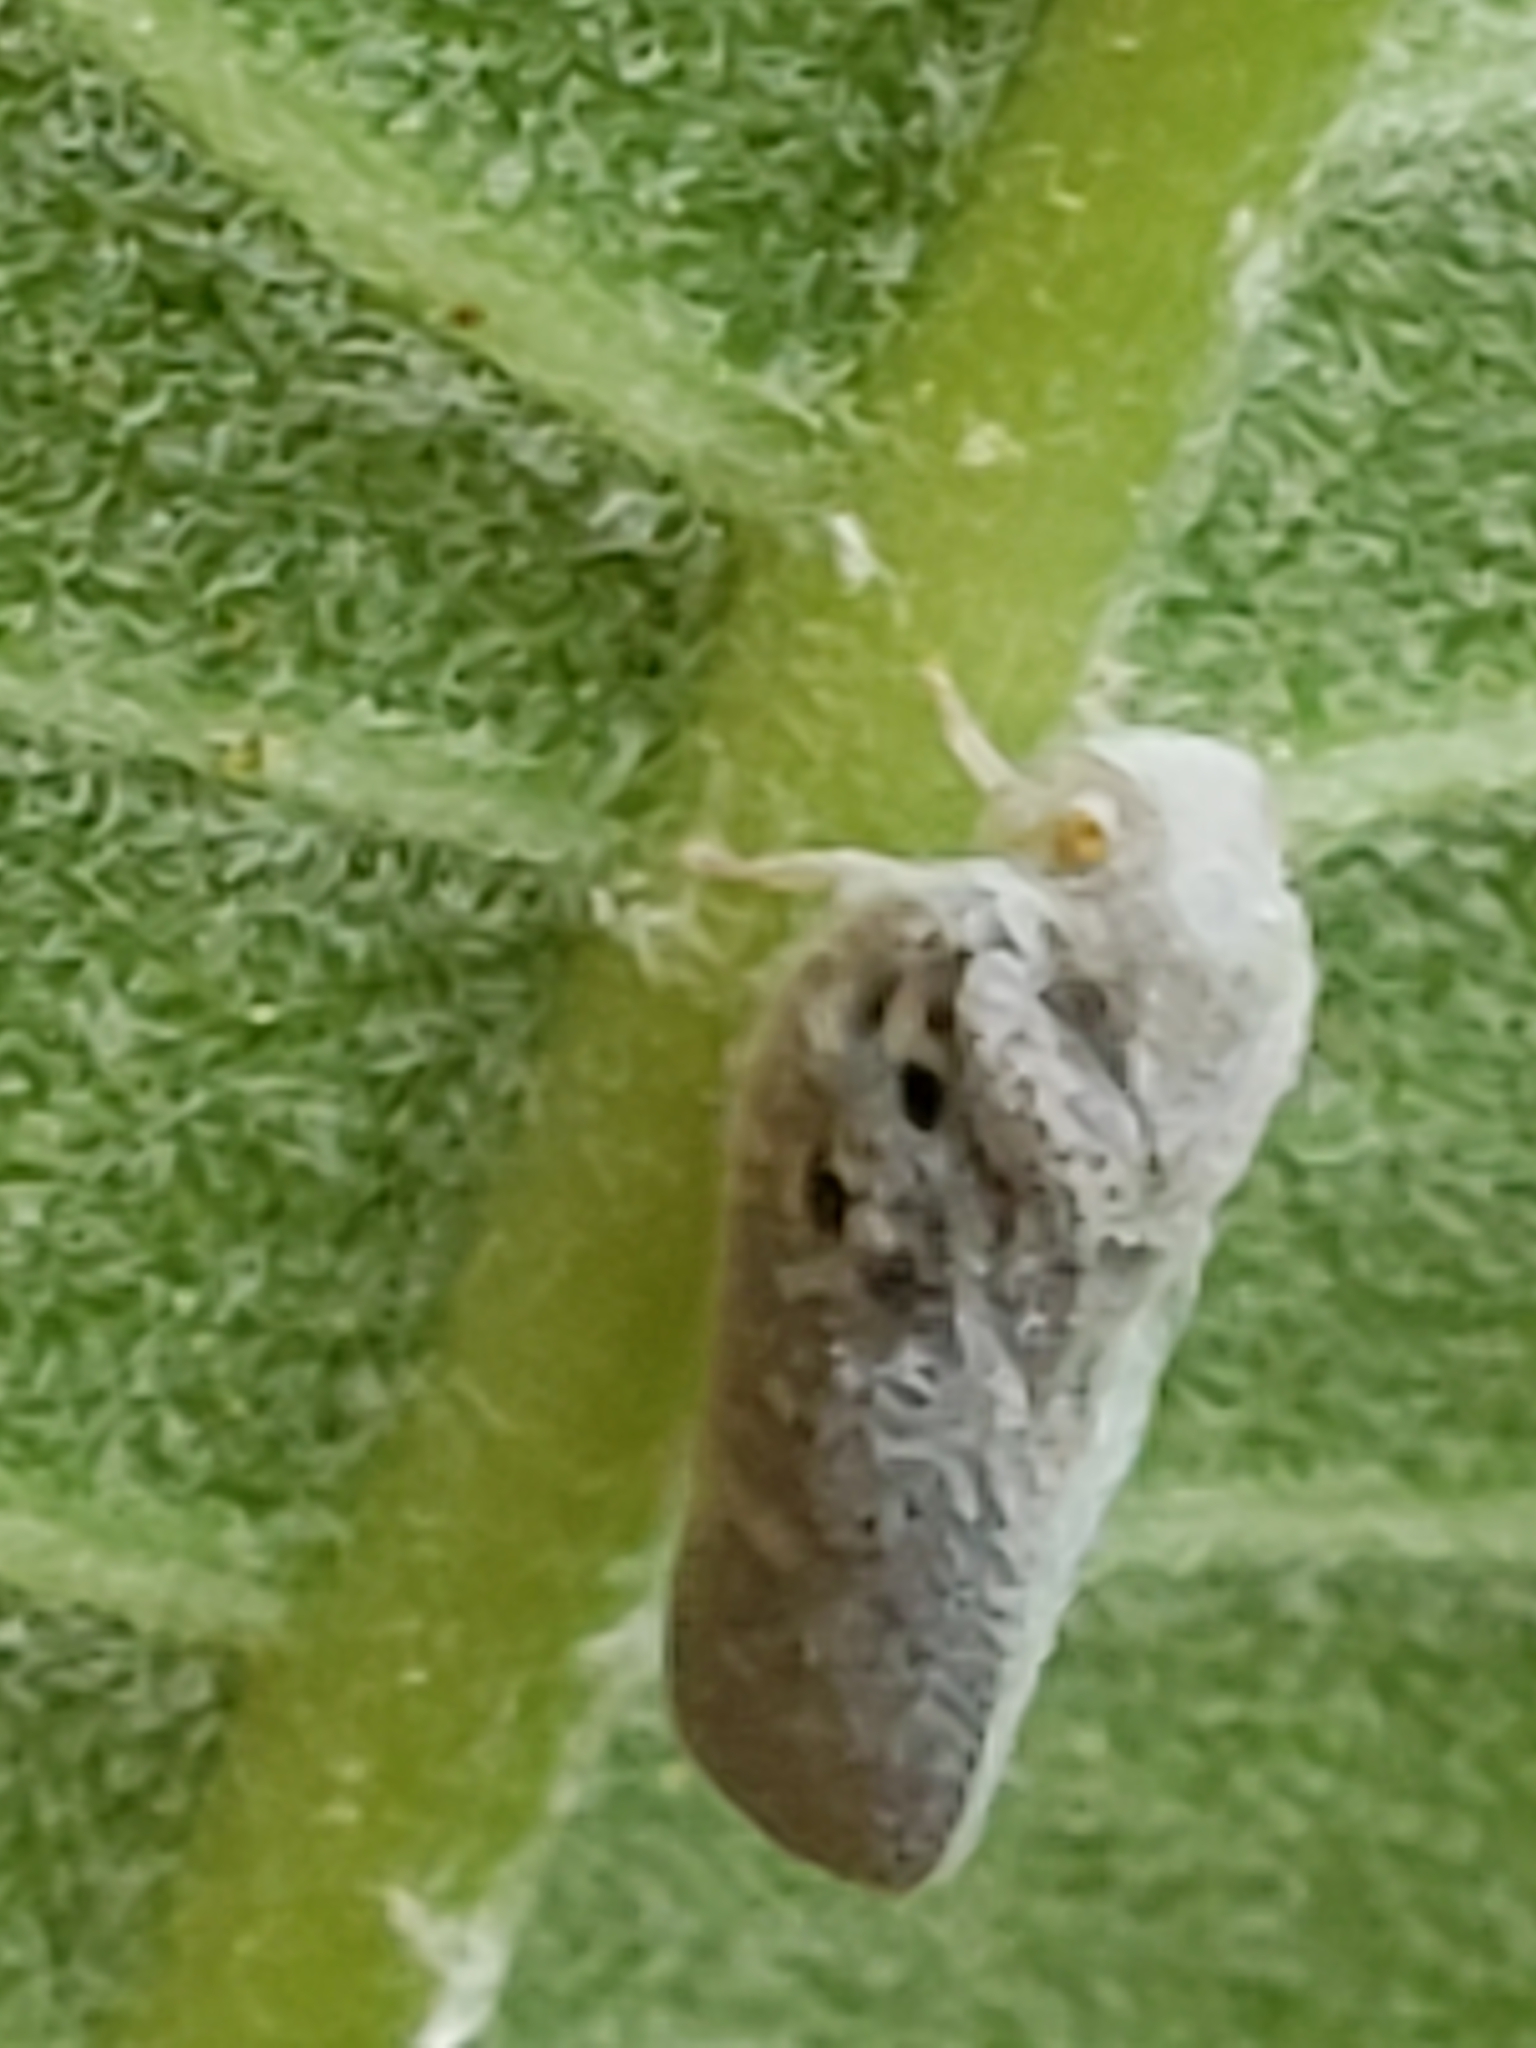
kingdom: Animalia
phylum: Arthropoda
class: Insecta
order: Hemiptera
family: Flatidae
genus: Metcalfa
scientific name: Metcalfa pruinosa
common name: Citrus flatid planthopper
